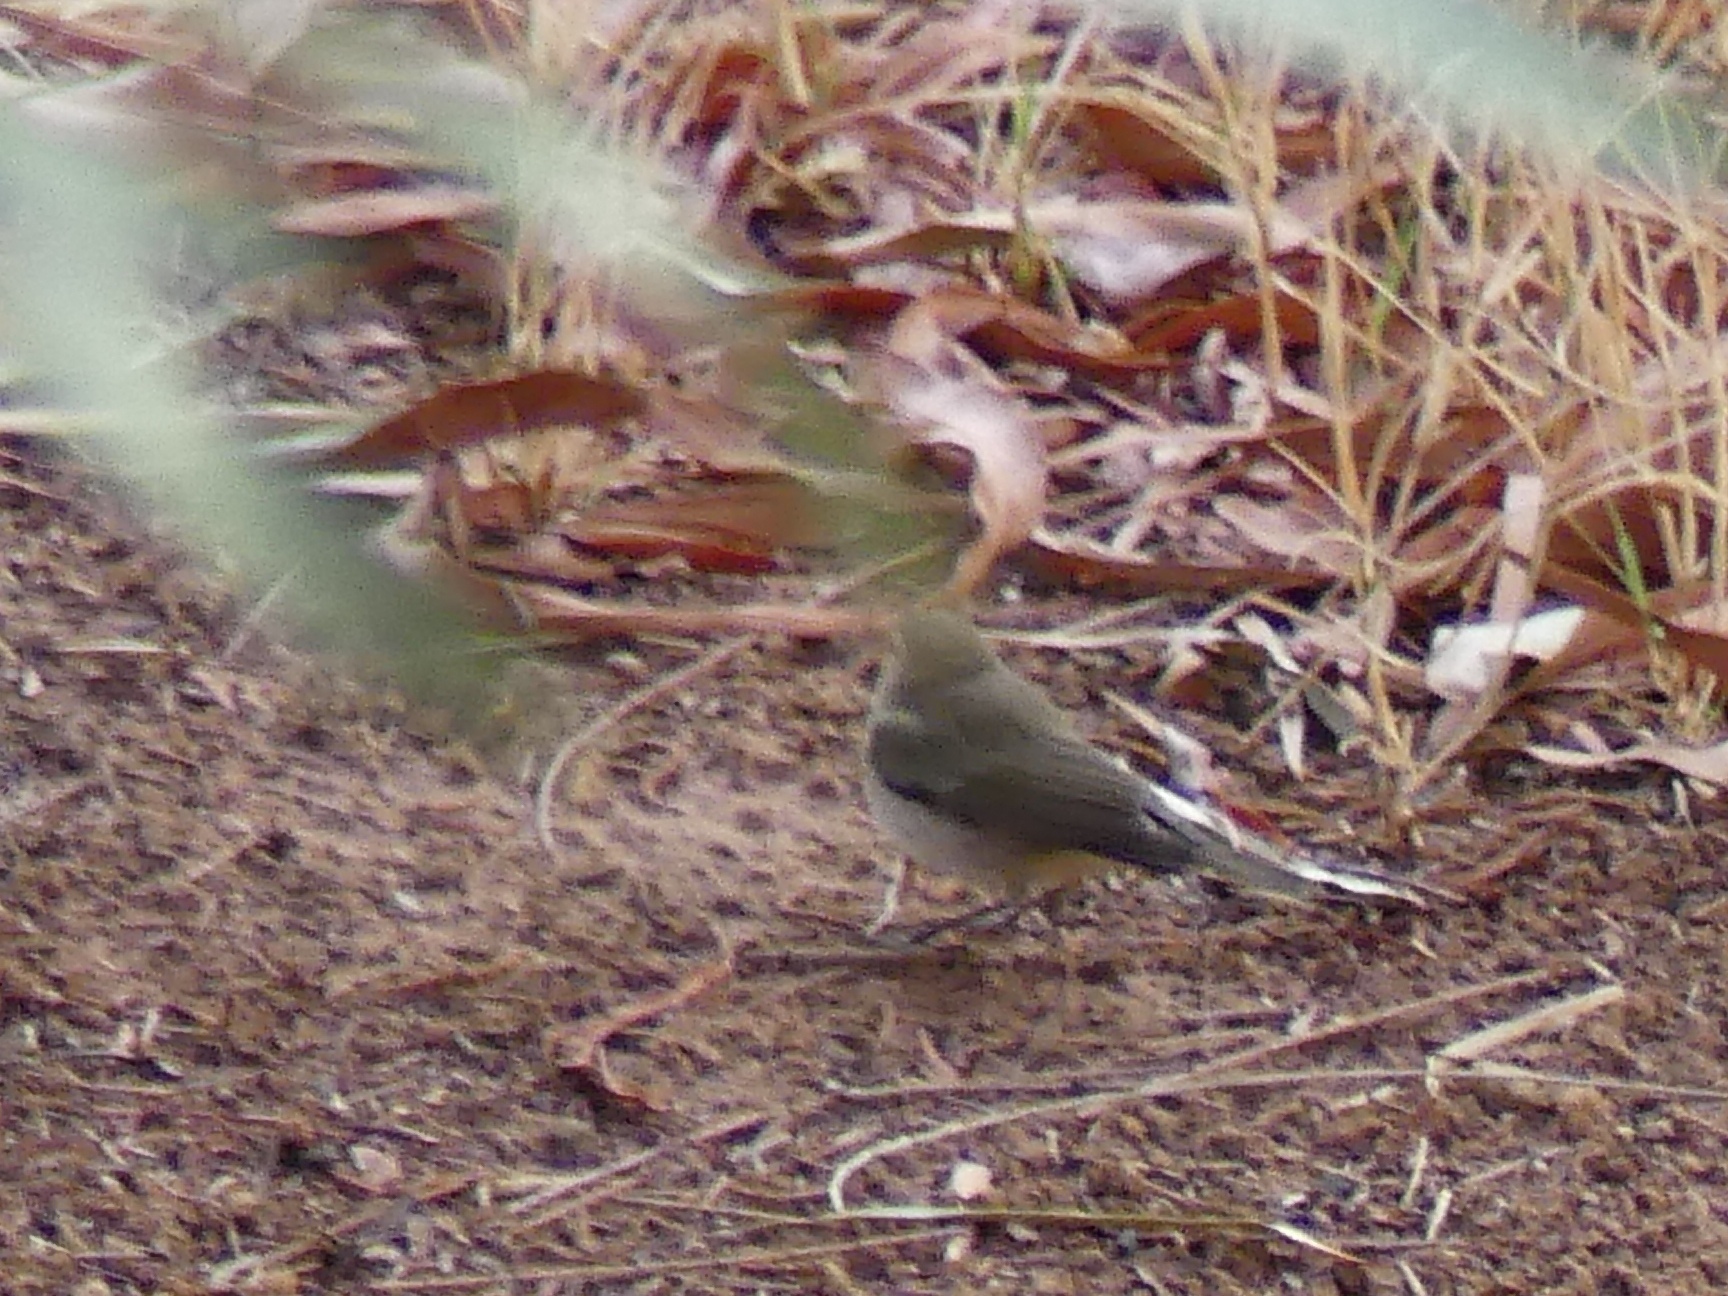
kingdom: Animalia
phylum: Chordata
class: Aves
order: Passeriformes
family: Motacillidae
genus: Motacilla
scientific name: Motacilla flava
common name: Western yellow wagtail
